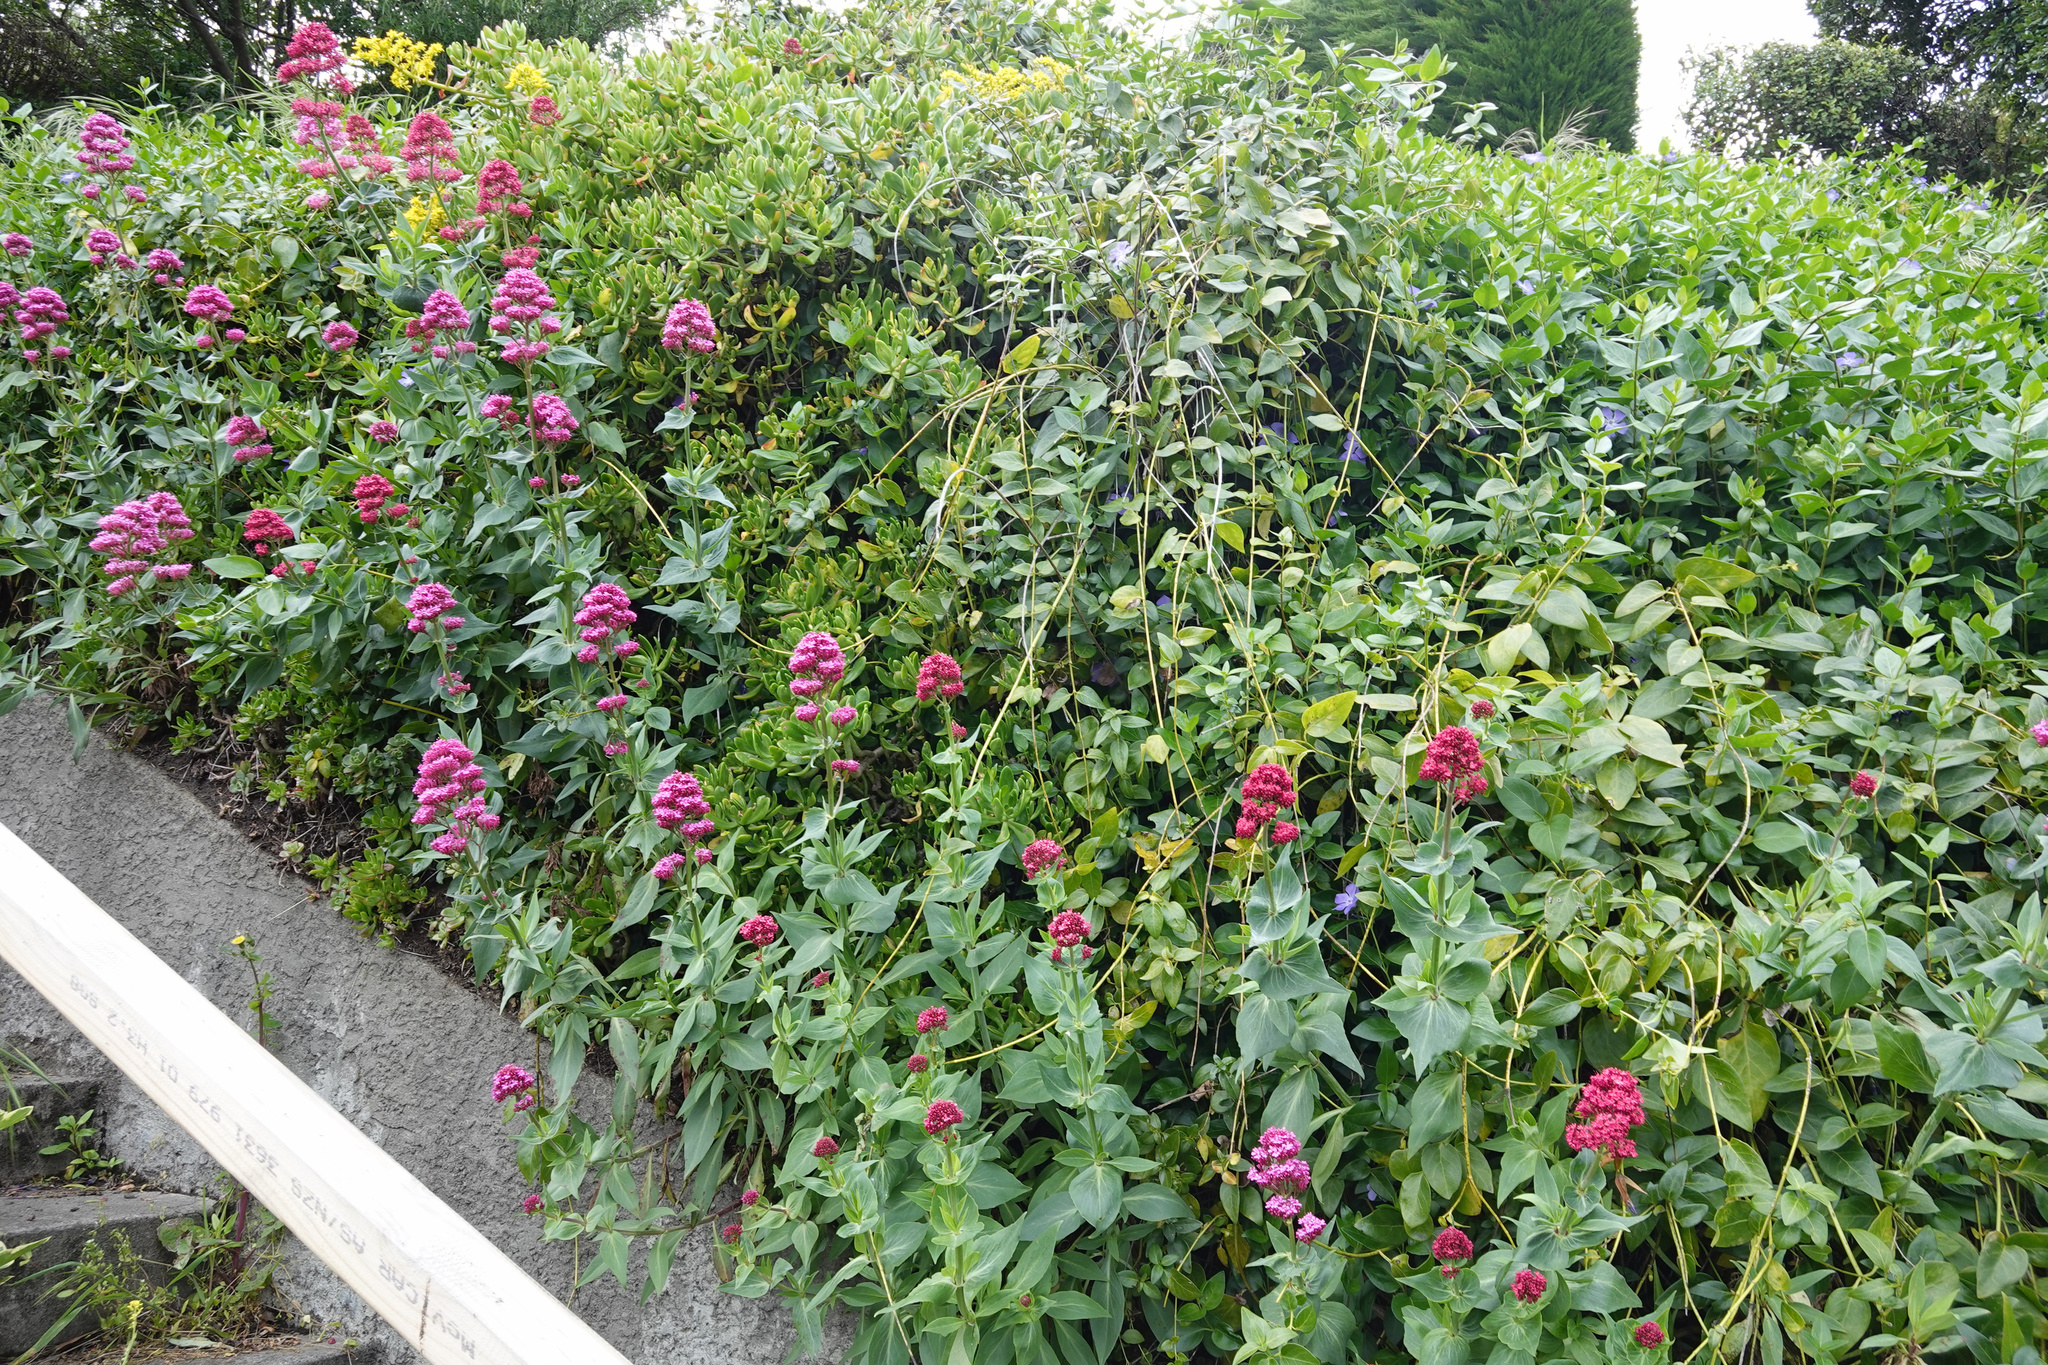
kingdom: Plantae
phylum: Tracheophyta
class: Magnoliopsida
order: Dipsacales
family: Caprifoliaceae
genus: Centranthus
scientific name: Centranthus ruber
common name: Red valerian
